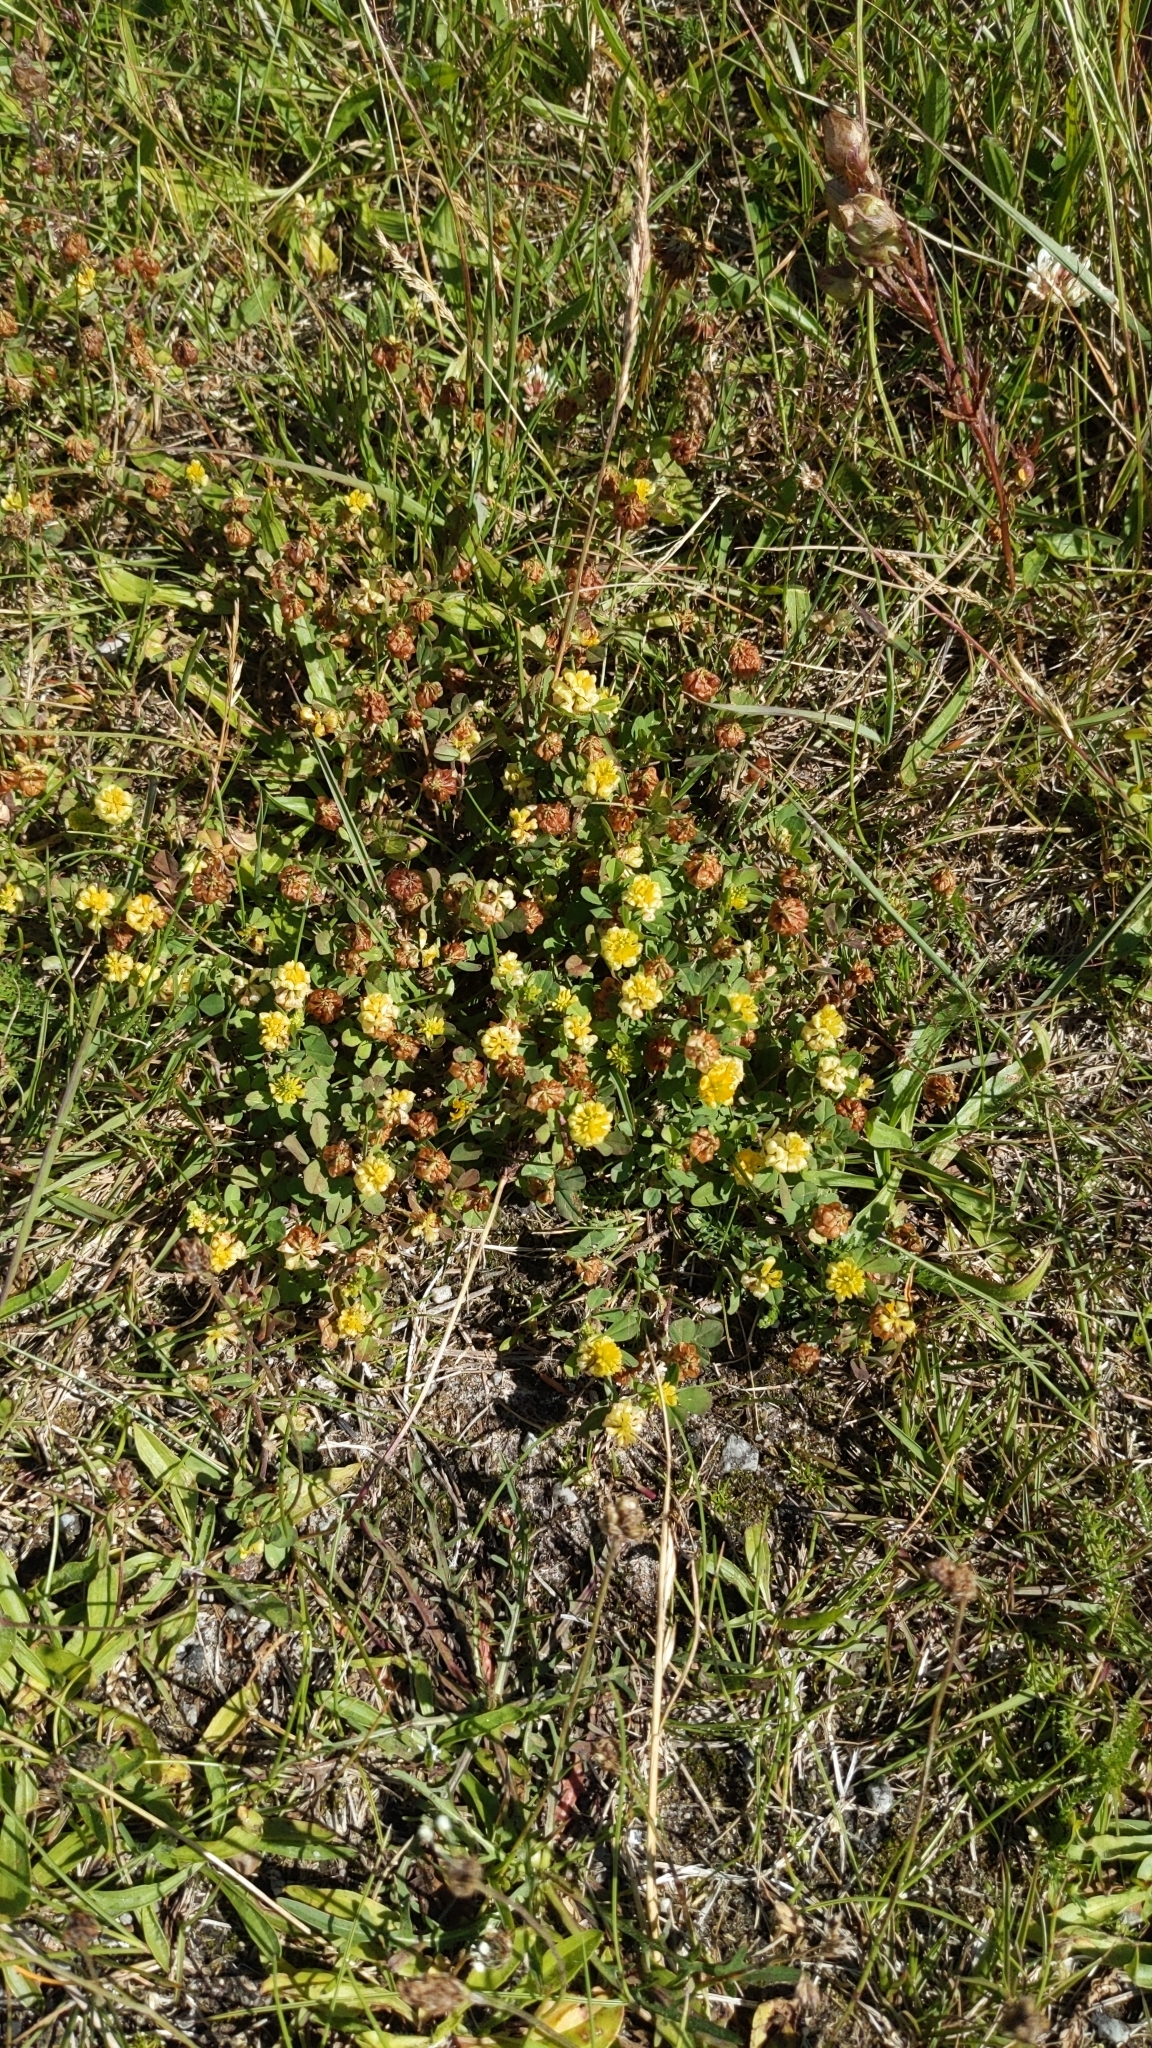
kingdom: Plantae
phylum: Tracheophyta
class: Magnoliopsida
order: Fabales
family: Fabaceae
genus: Trifolium
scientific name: Trifolium campestre
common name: Field clover
